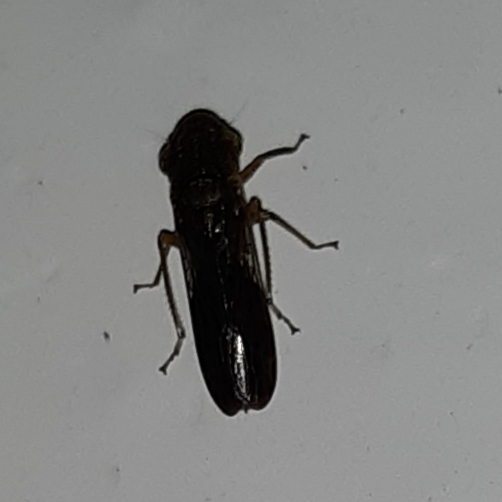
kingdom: Animalia
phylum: Arthropoda
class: Insecta
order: Hemiptera
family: Cicadellidae
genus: Homalodisca
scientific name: Homalodisca vitripennis
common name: Glassy-winged sharpshooter
